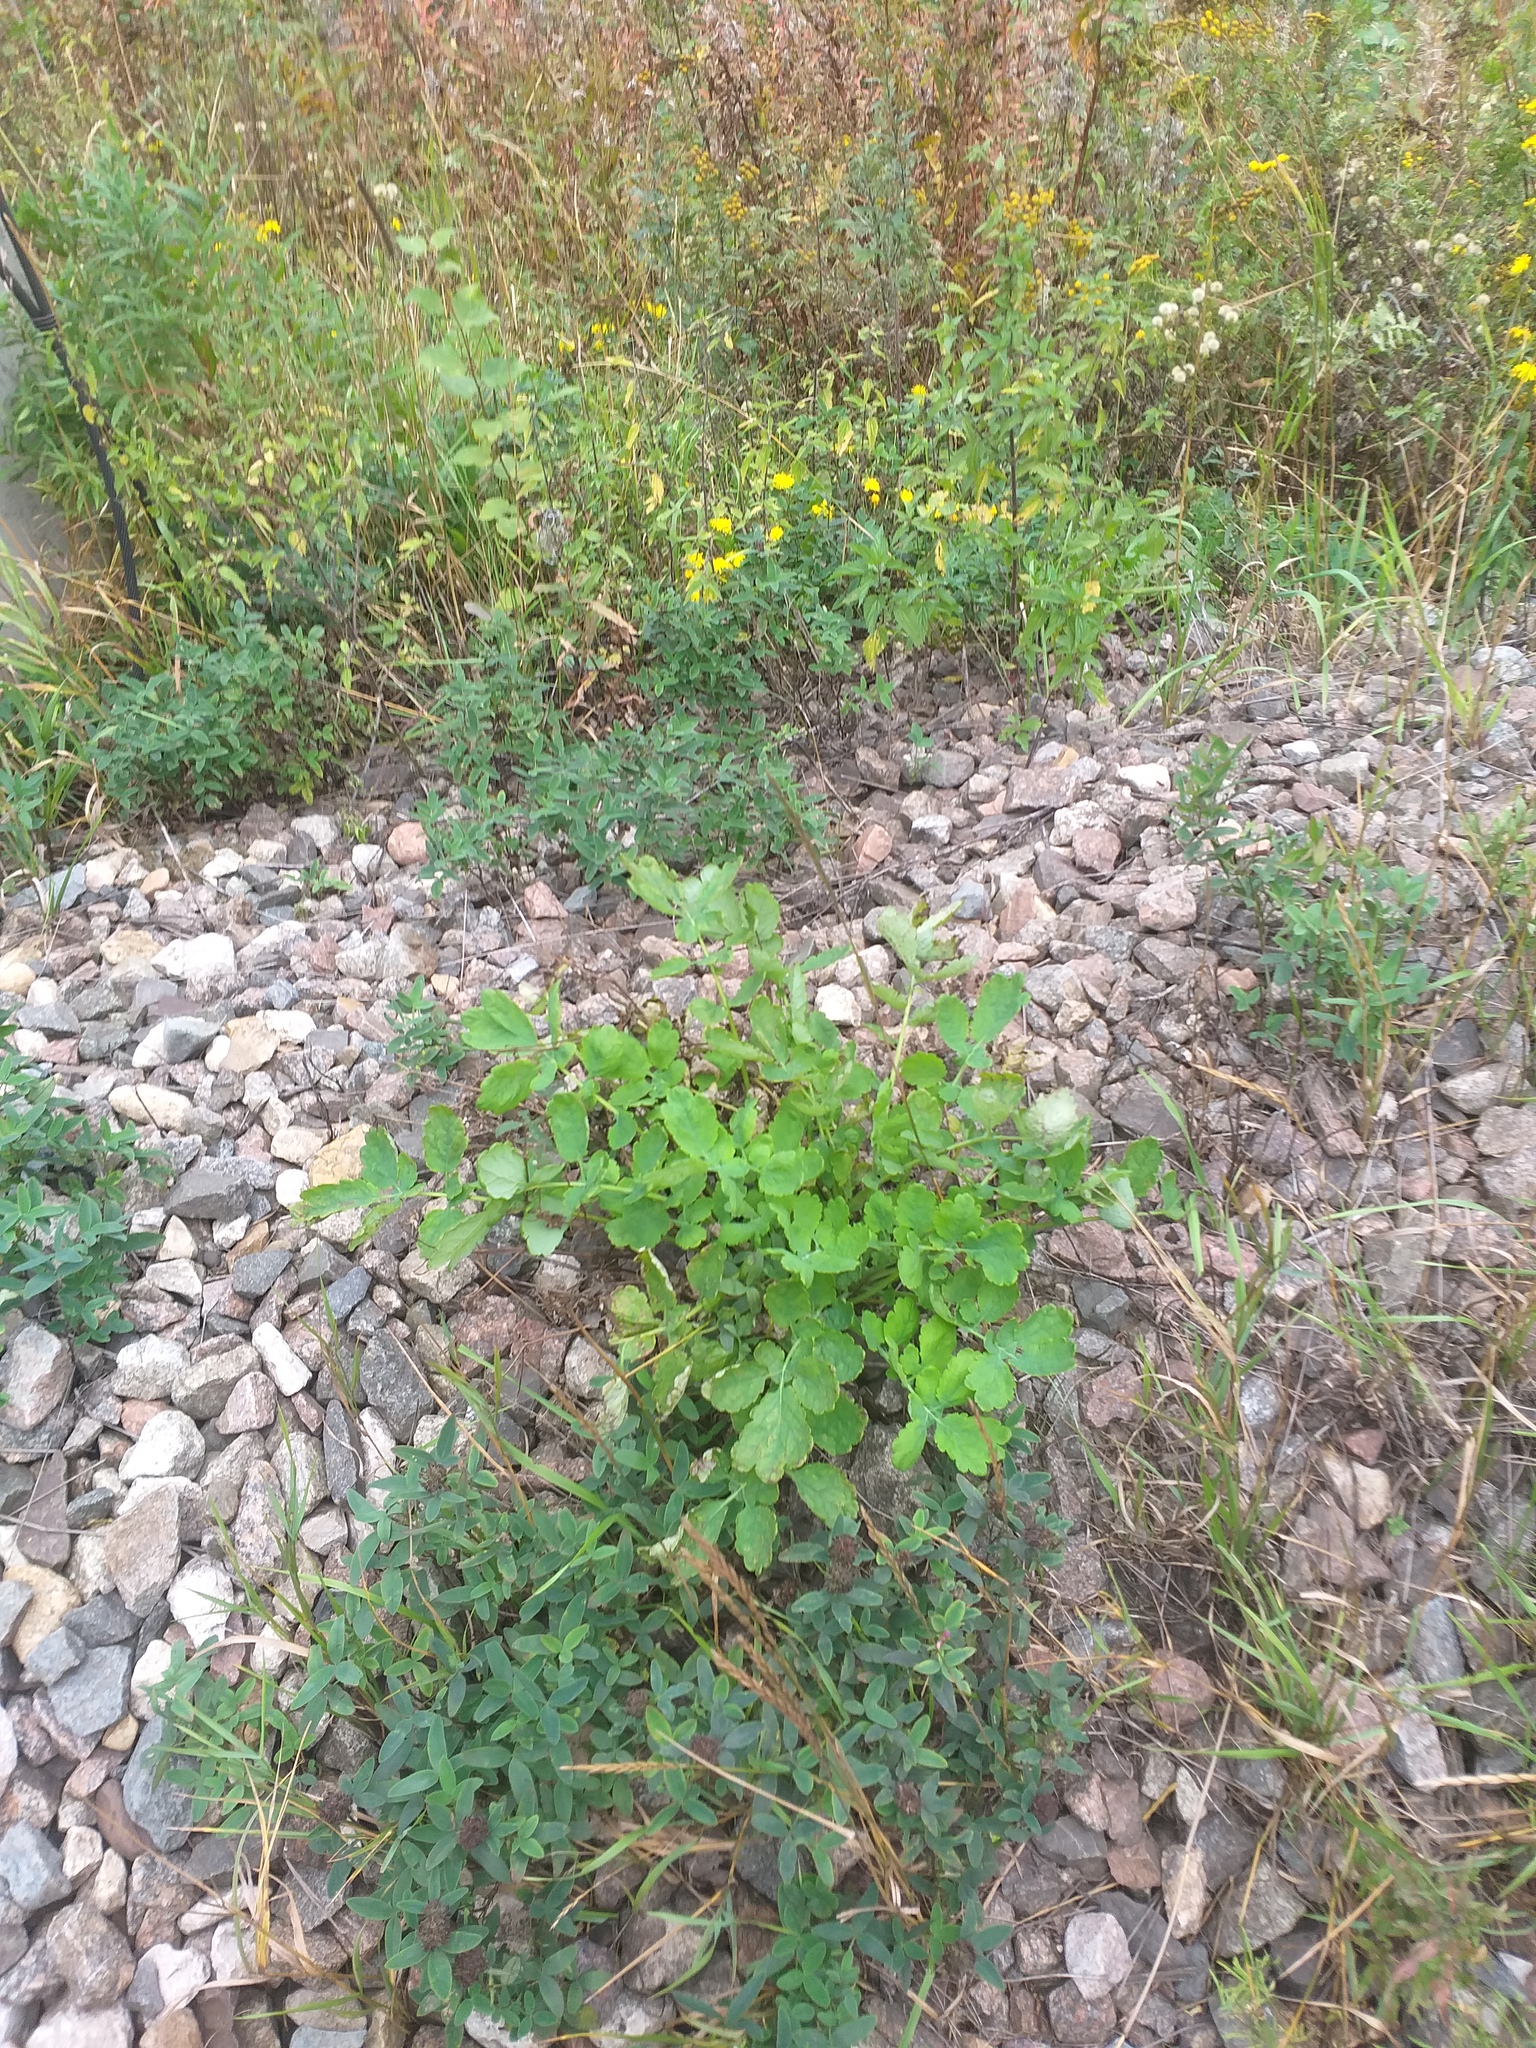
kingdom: Plantae
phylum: Tracheophyta
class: Magnoliopsida
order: Ranunculales
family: Papaveraceae
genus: Chelidonium
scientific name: Chelidonium majus
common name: Greater celandine
